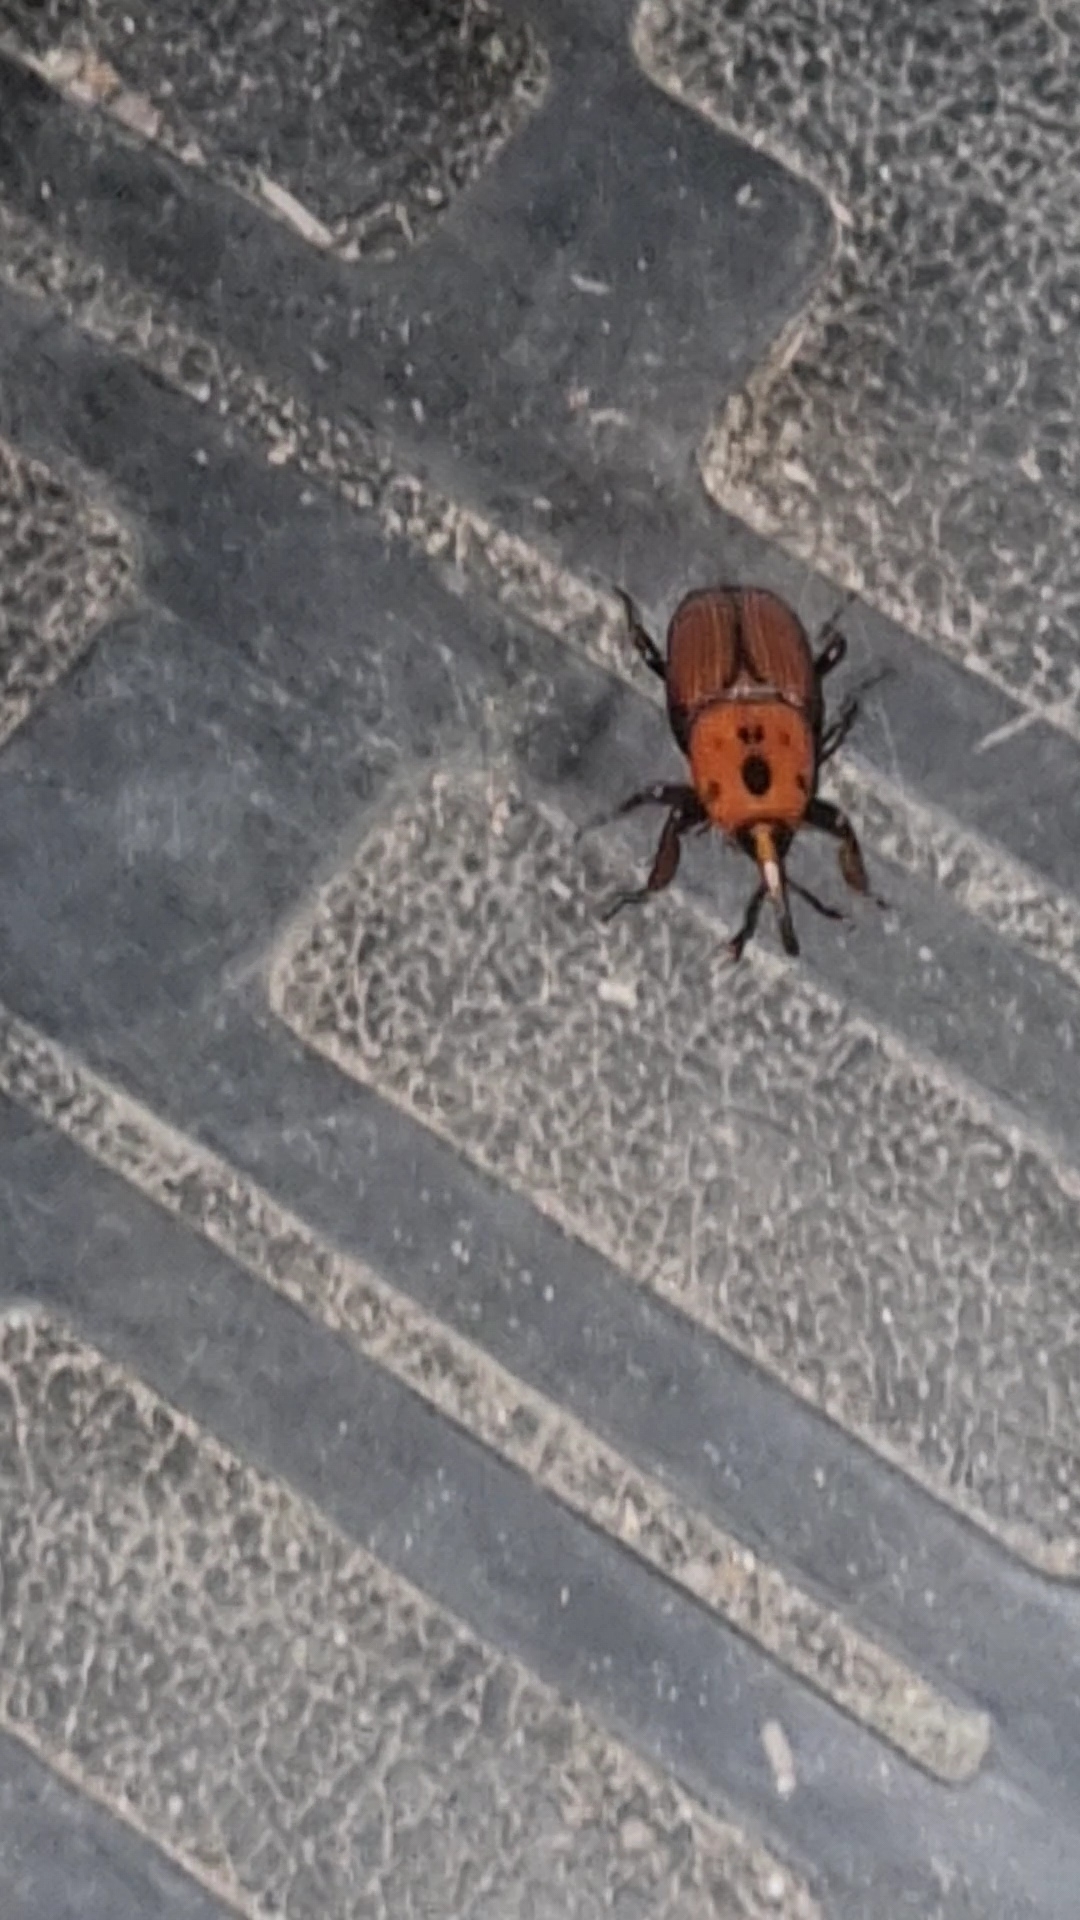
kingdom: Animalia
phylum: Arthropoda
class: Insecta
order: Coleoptera
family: Dryophthoridae
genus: Rhynchophorus
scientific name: Rhynchophorus ferrugineus
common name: Red palm weevil
